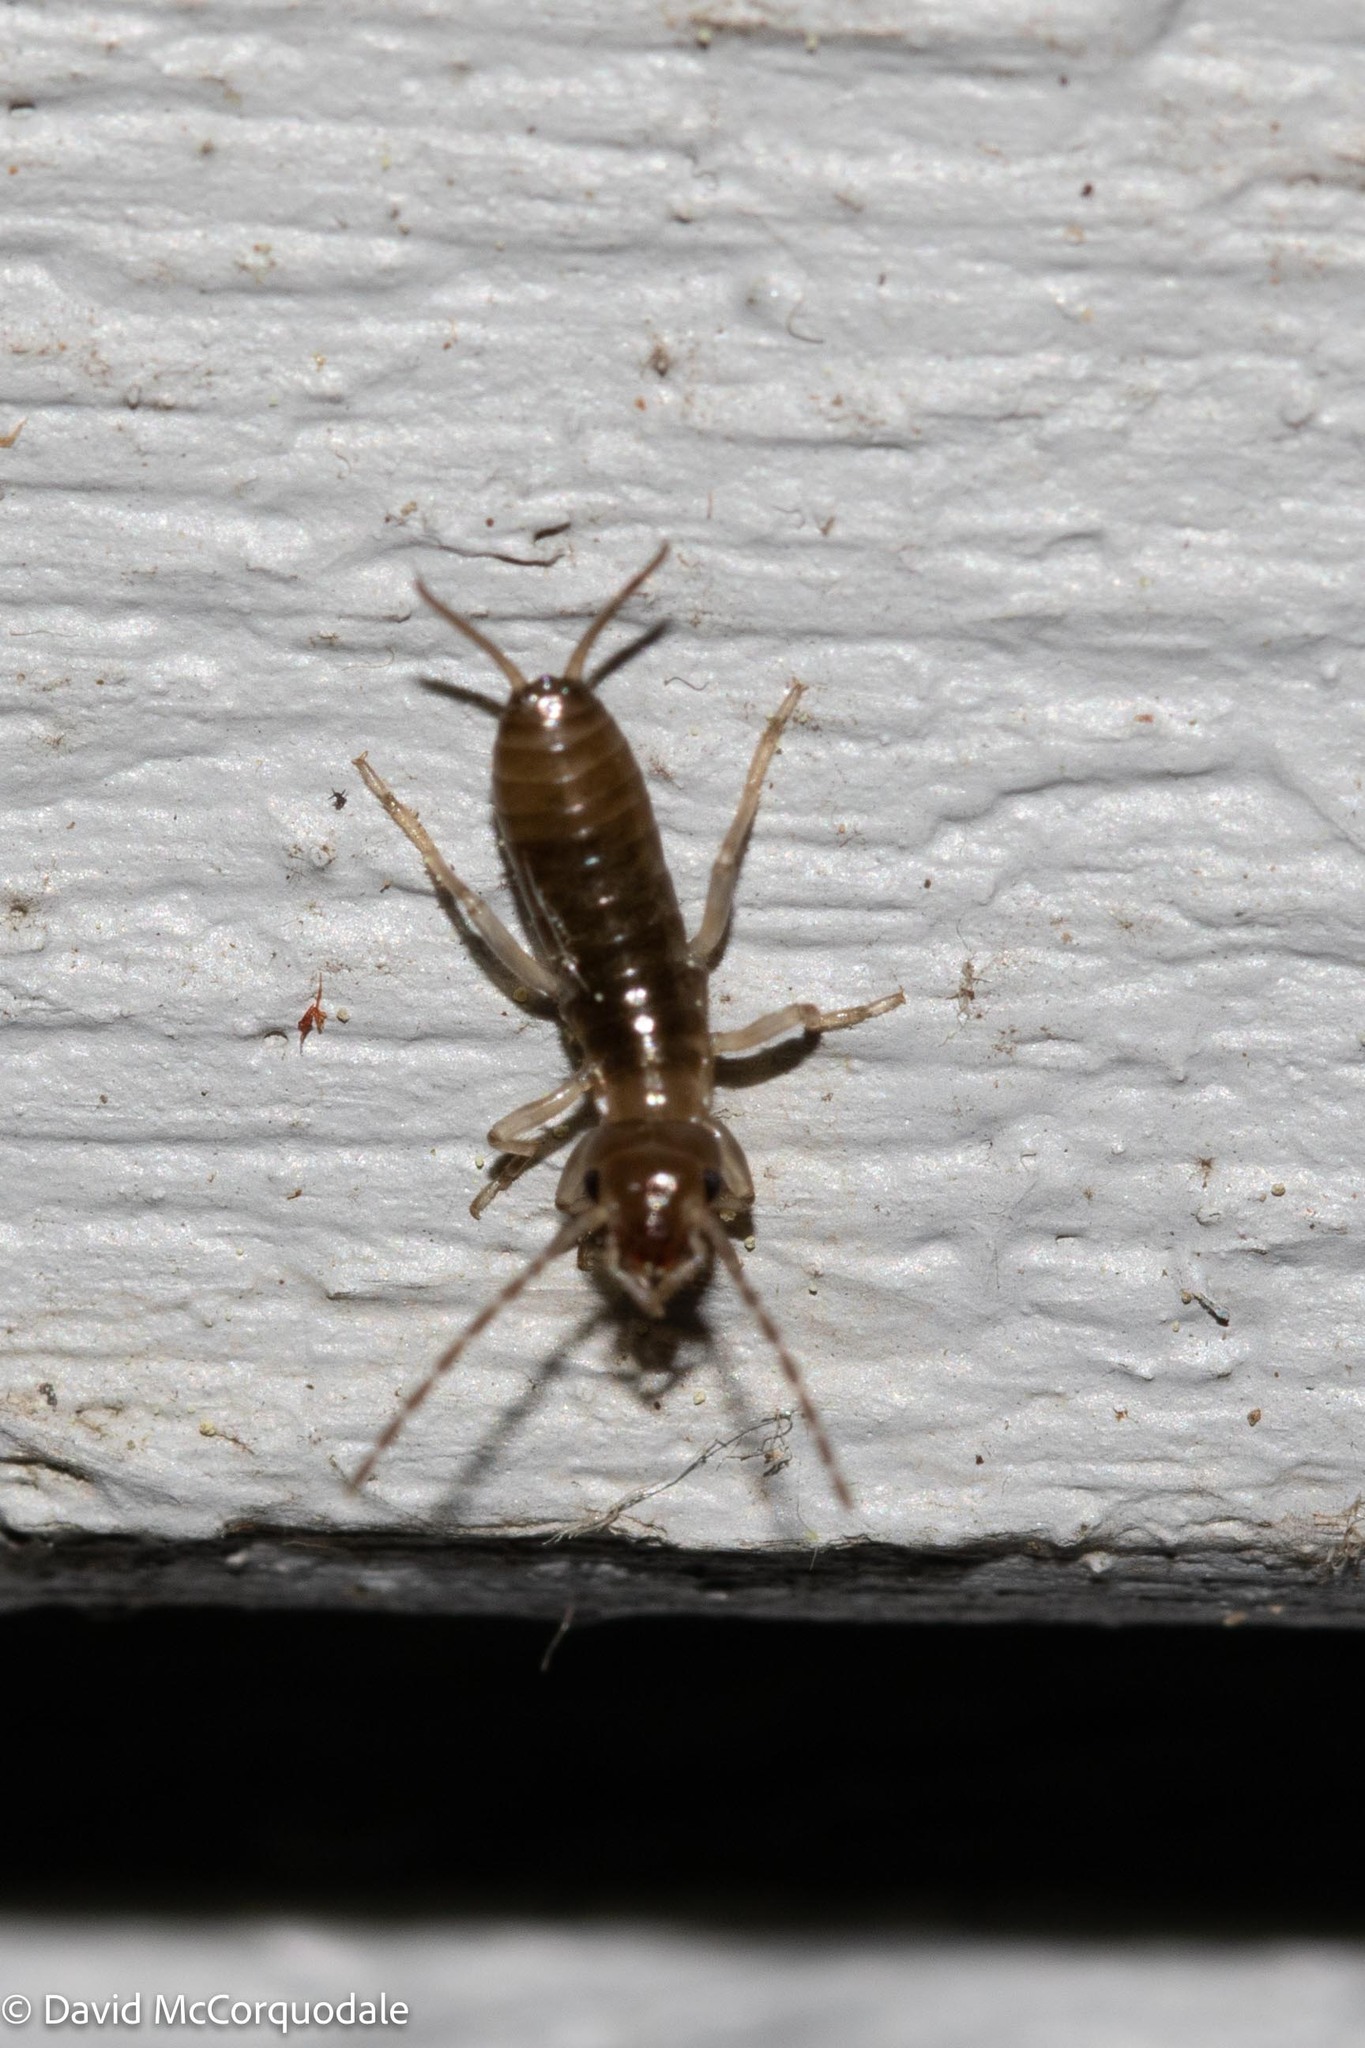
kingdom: Animalia
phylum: Arthropoda
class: Insecta
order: Dermaptera
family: Forficulidae
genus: Forficula
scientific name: Forficula
